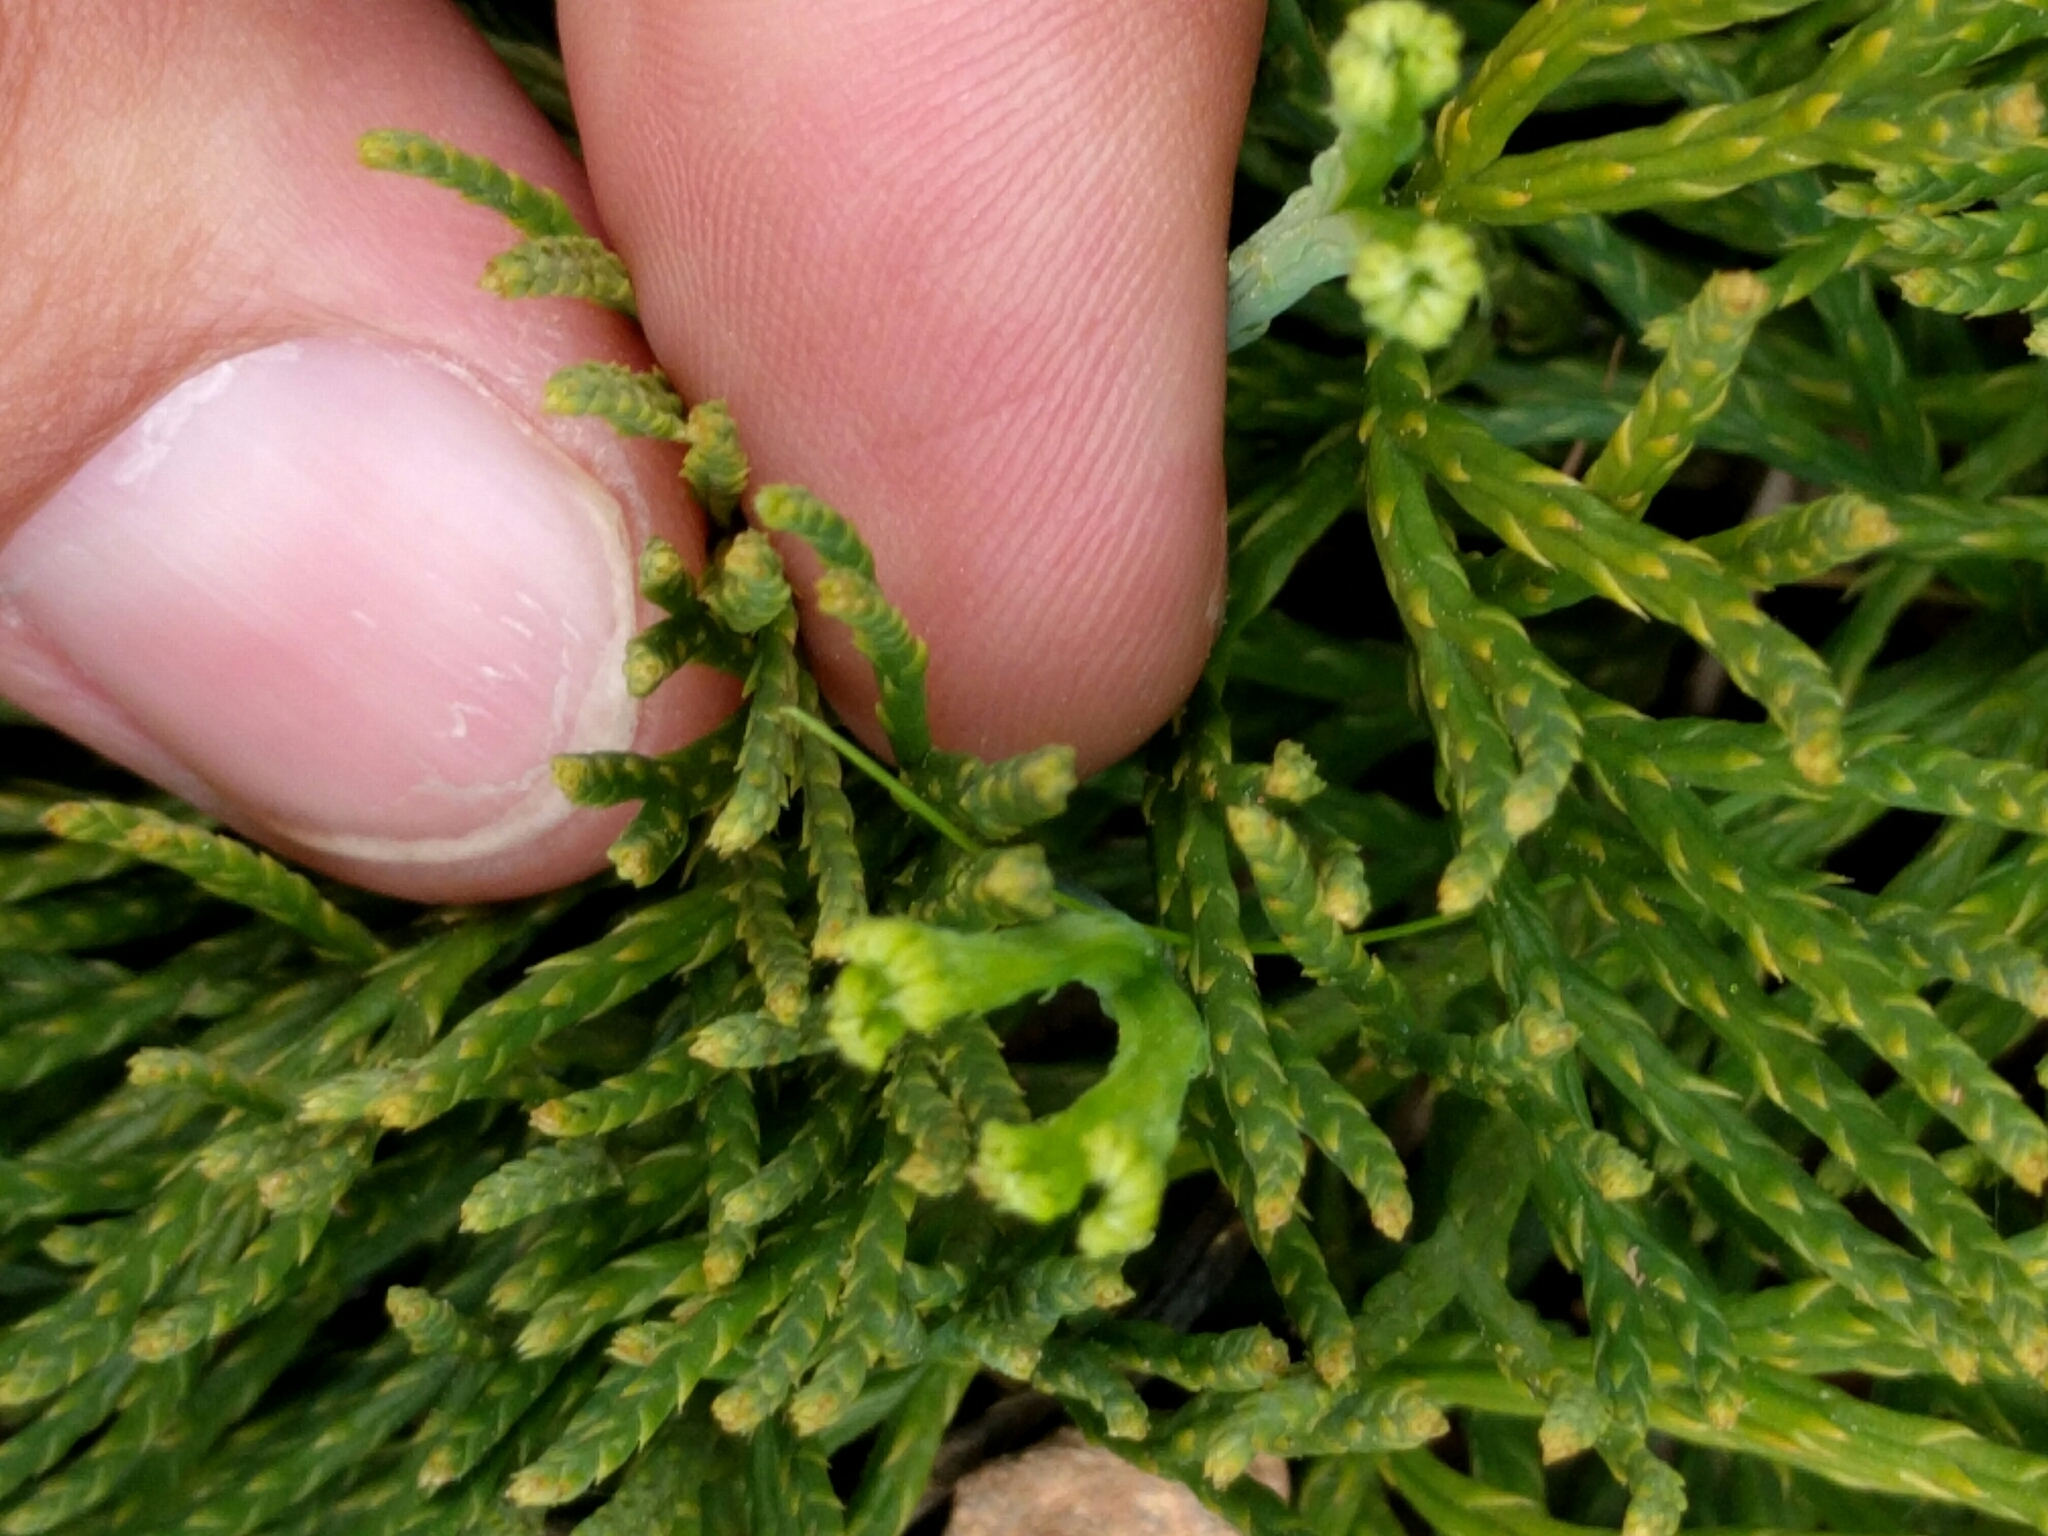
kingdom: Plantae
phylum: Tracheophyta
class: Lycopodiopsida
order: Lycopodiales
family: Lycopodiaceae
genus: Diphasiastrum
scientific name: Diphasiastrum digitatum
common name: Southern running-pine
